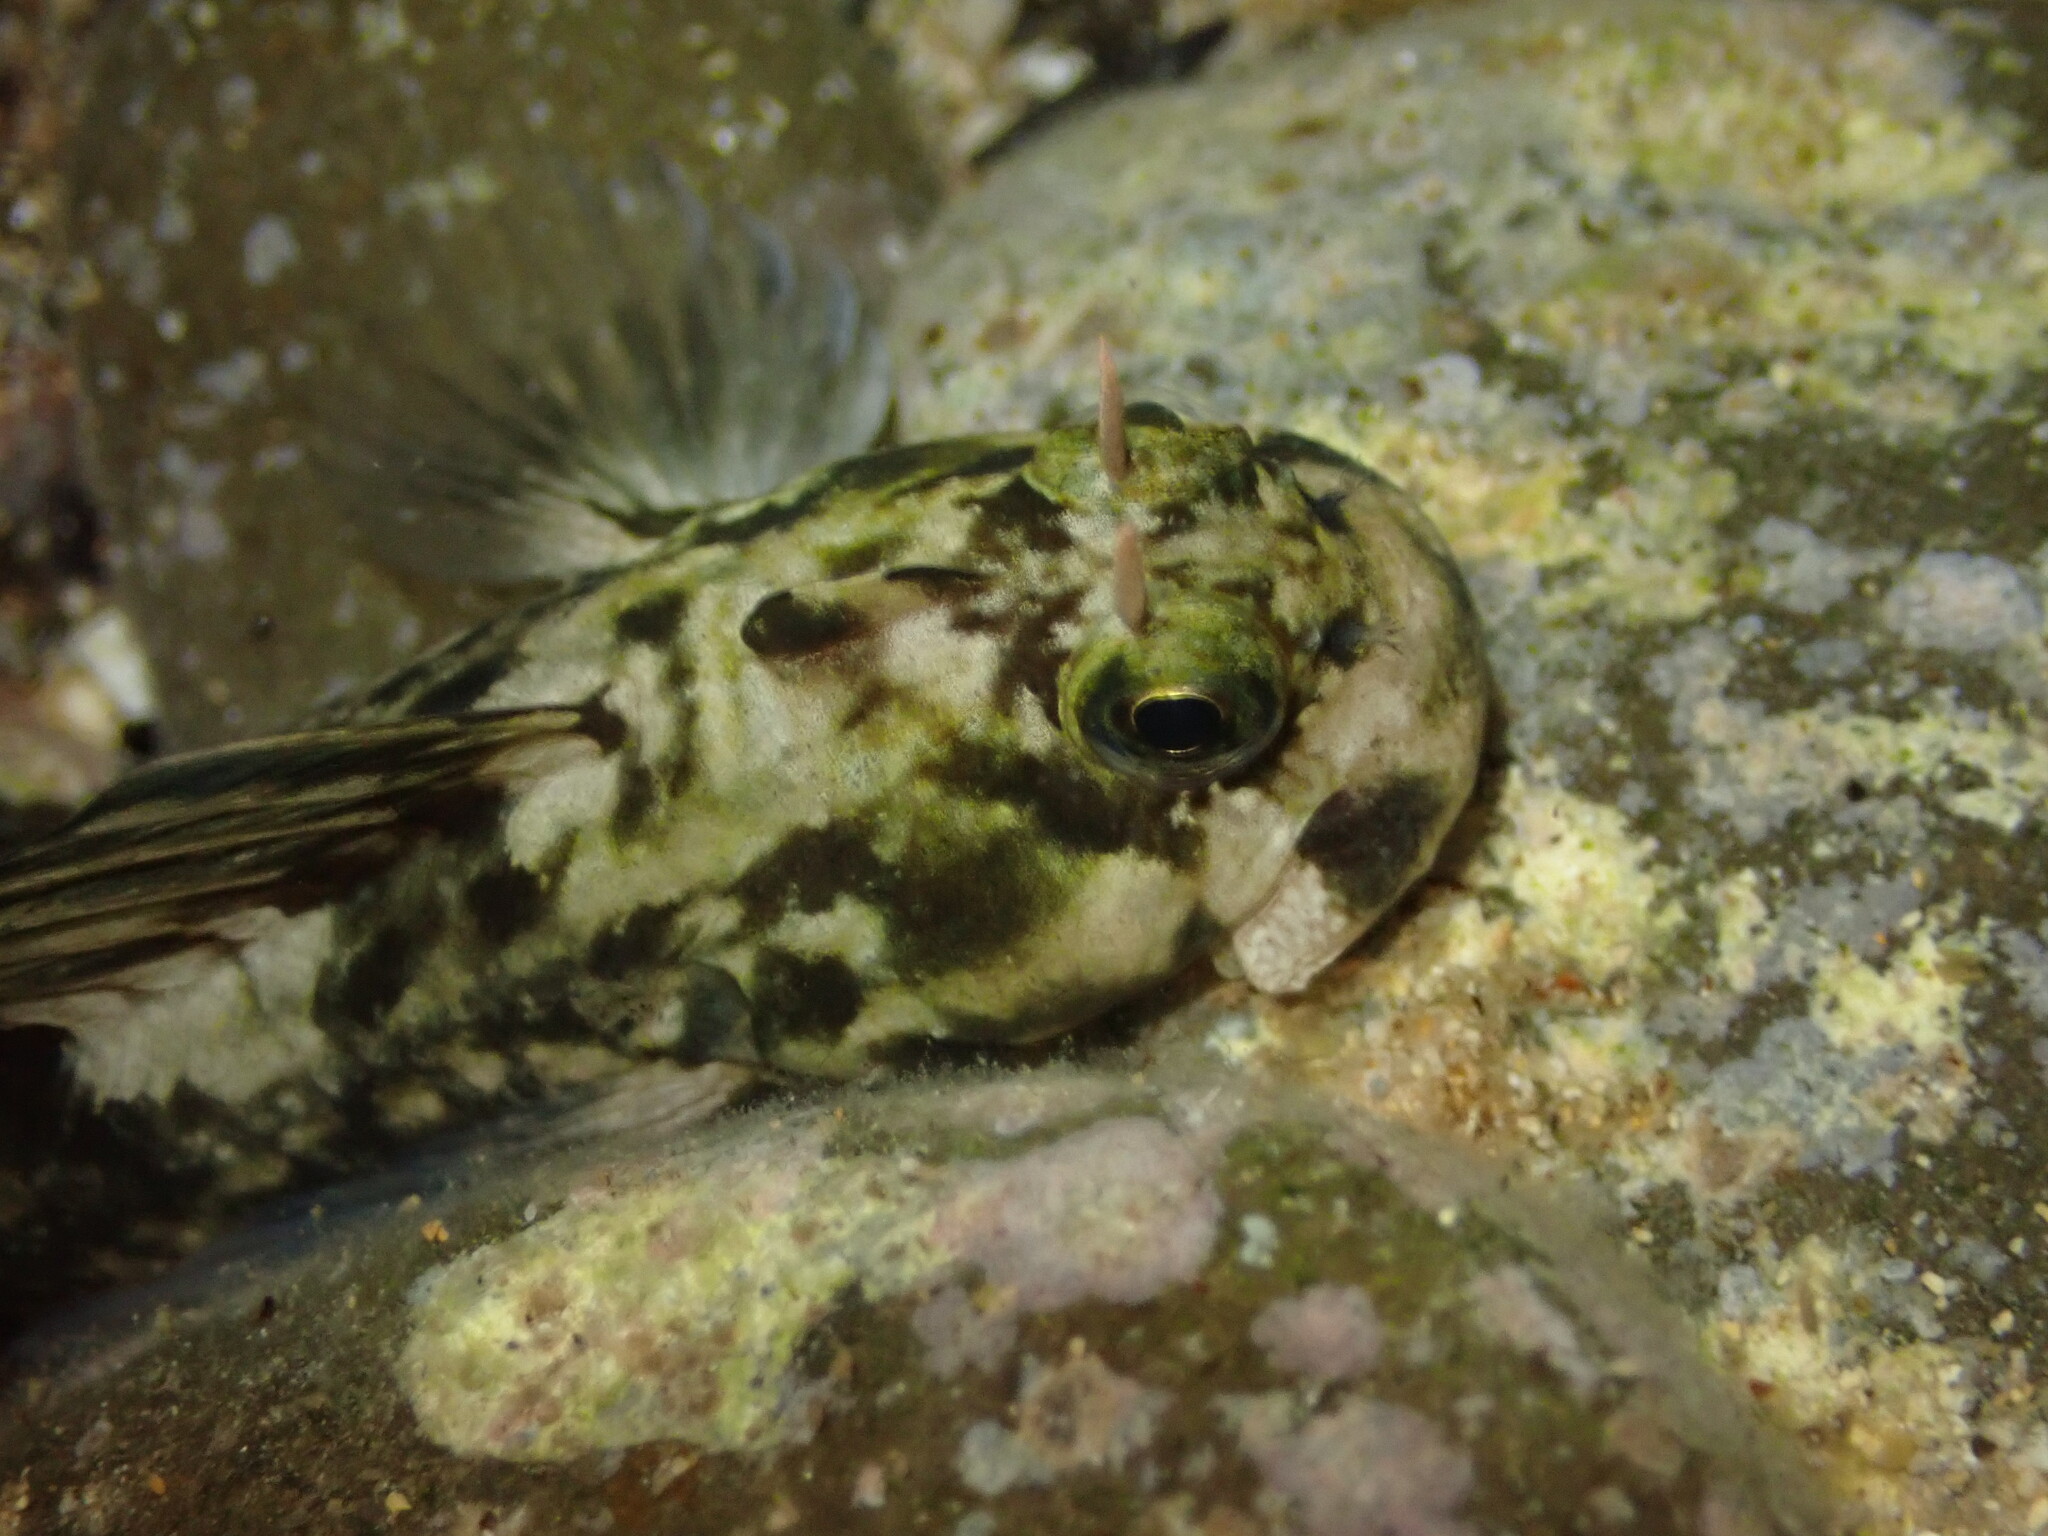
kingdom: Animalia
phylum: Chordata
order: Perciformes
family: Blenniidae
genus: Istiblennius
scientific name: Istiblennius zebra
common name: Zebra blenny
